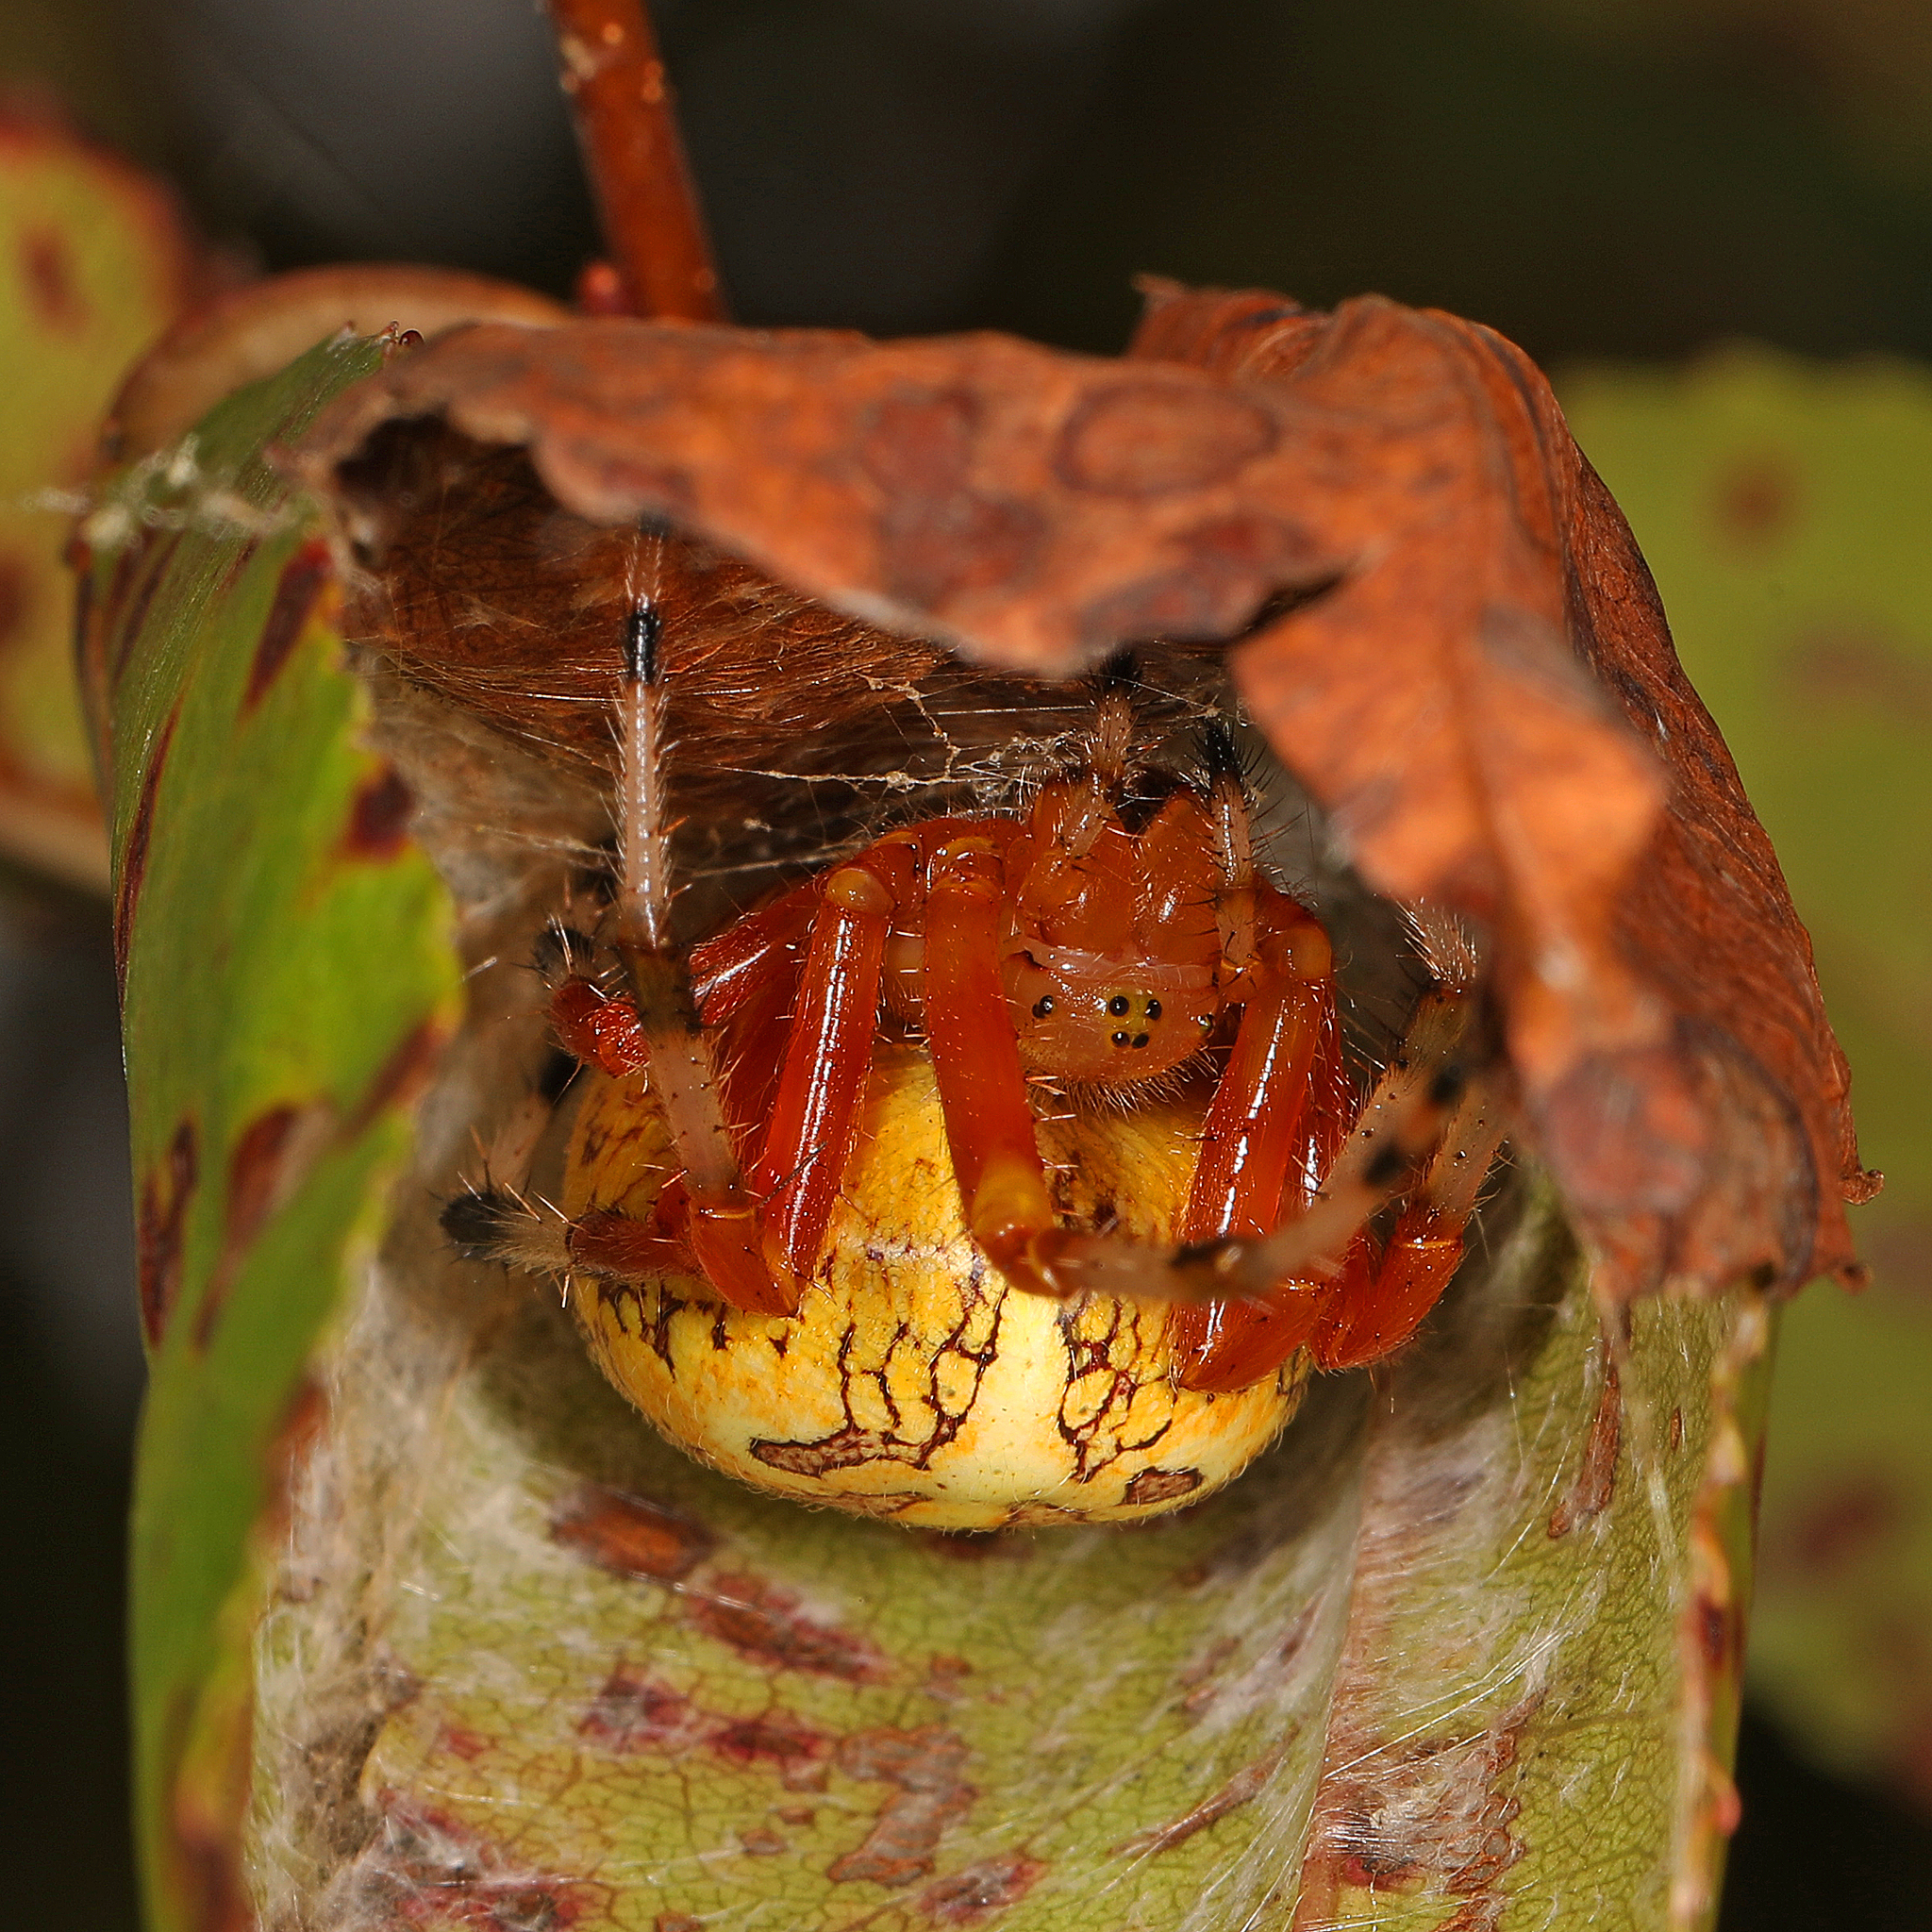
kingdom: Animalia
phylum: Arthropoda
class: Arachnida
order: Araneae
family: Araneidae
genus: Araneus
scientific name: Araneus marmoreus
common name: Marbled orbweaver
